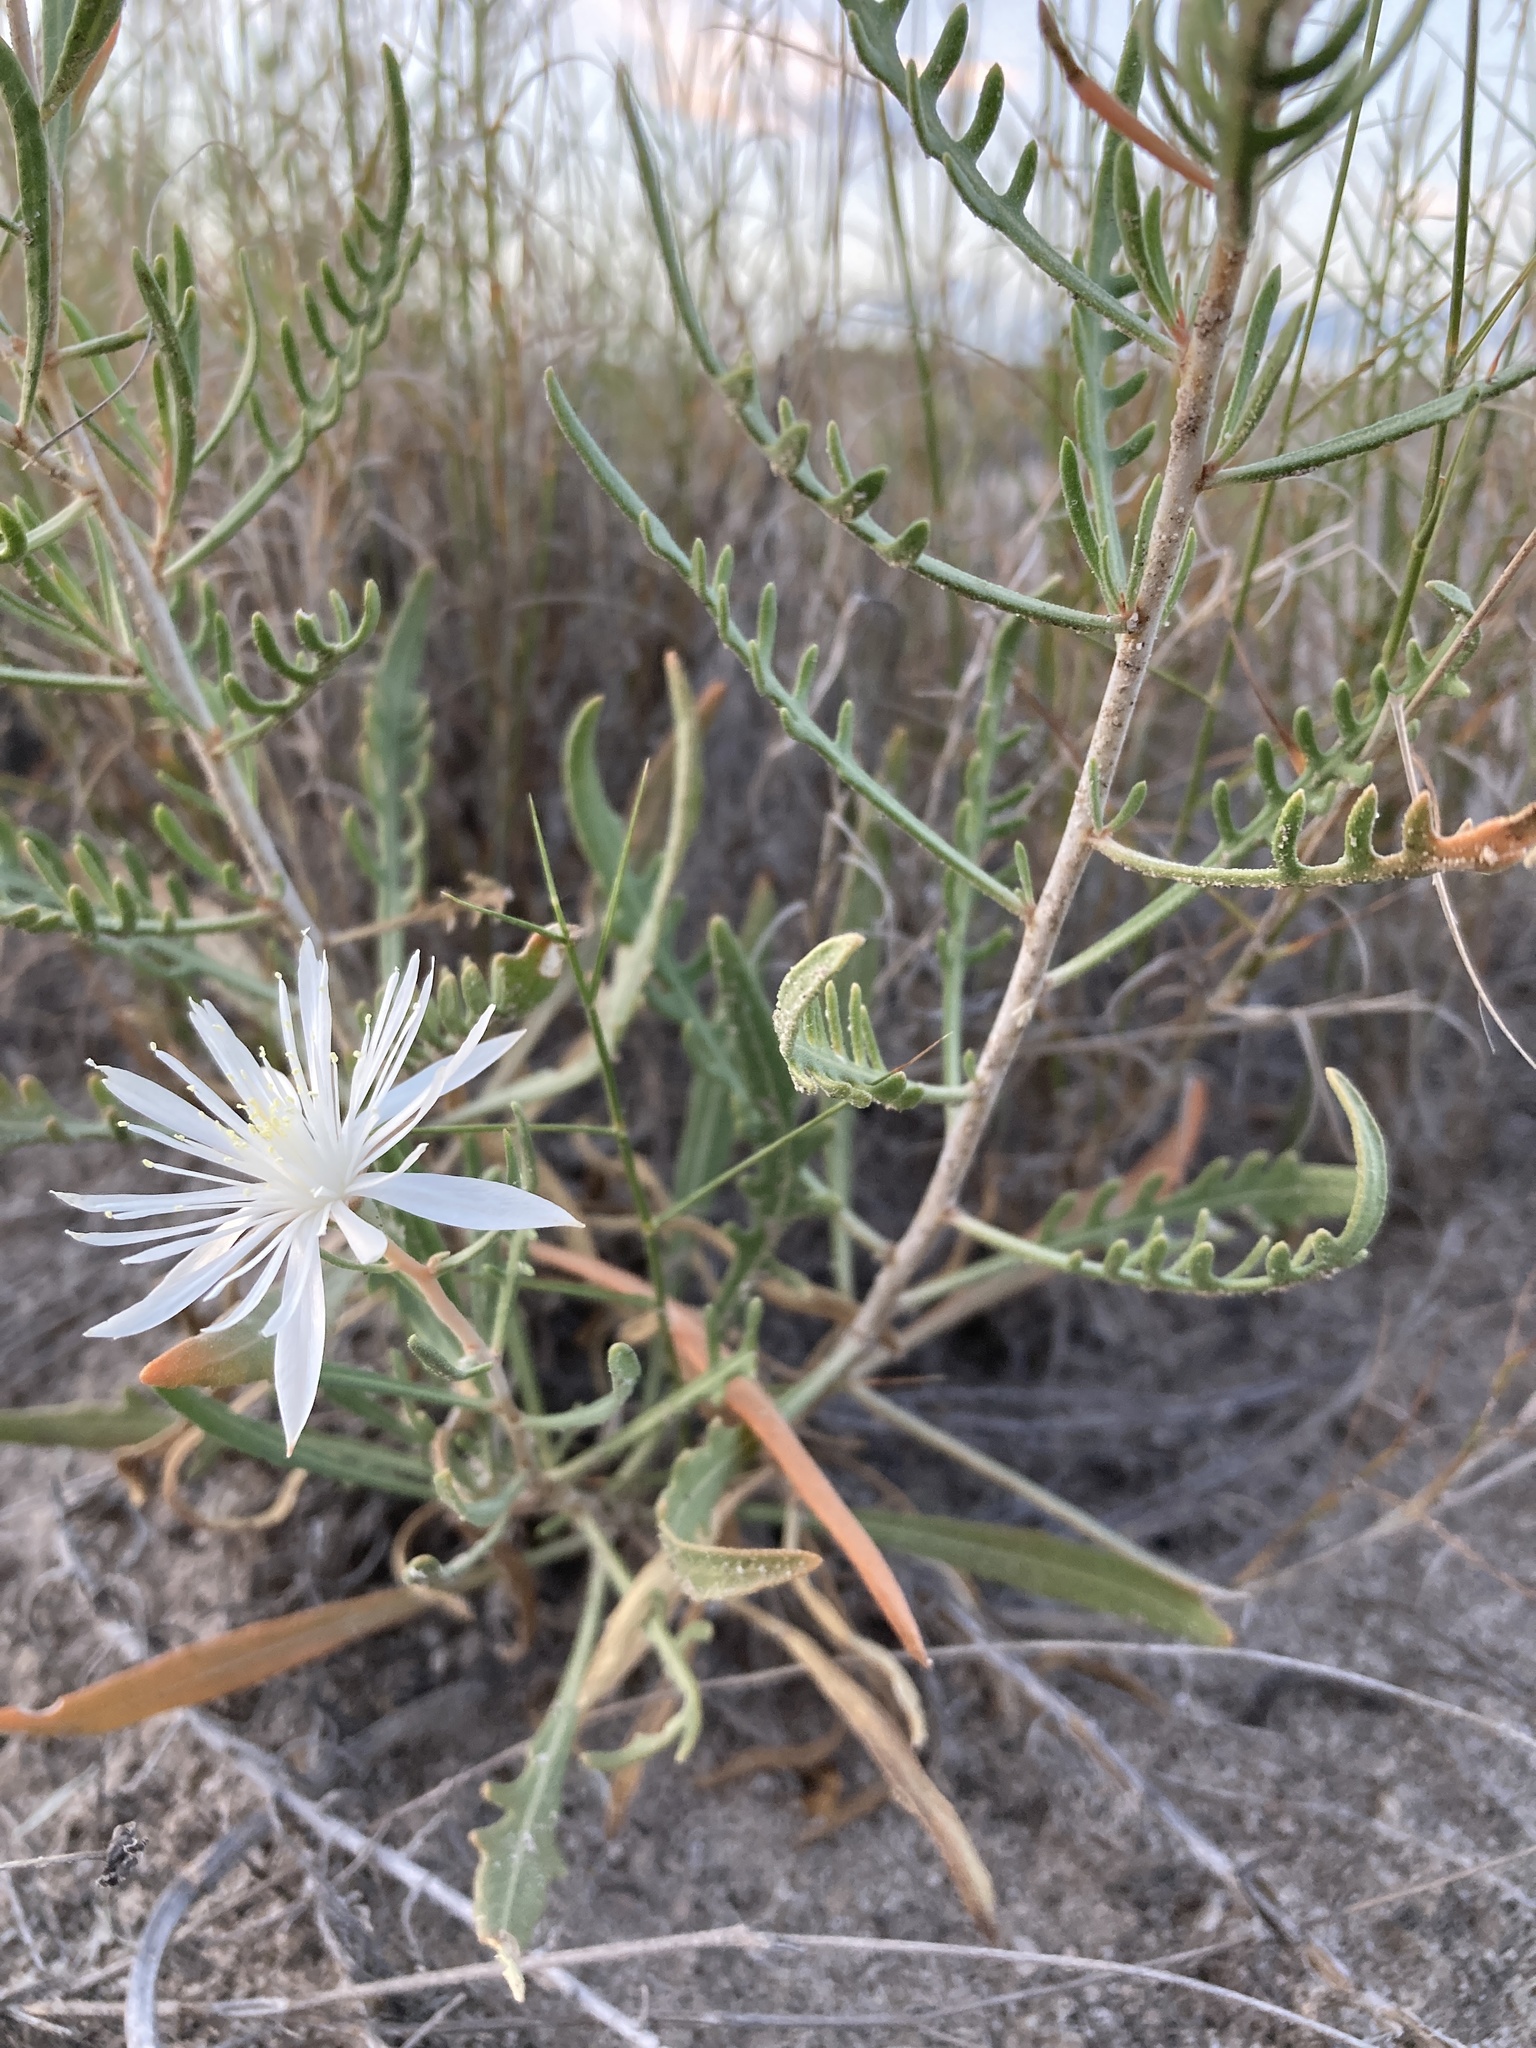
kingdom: Plantae
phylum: Tracheophyta
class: Magnoliopsida
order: Cornales
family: Loasaceae
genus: Mentzelia
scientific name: Mentzelia humilis
